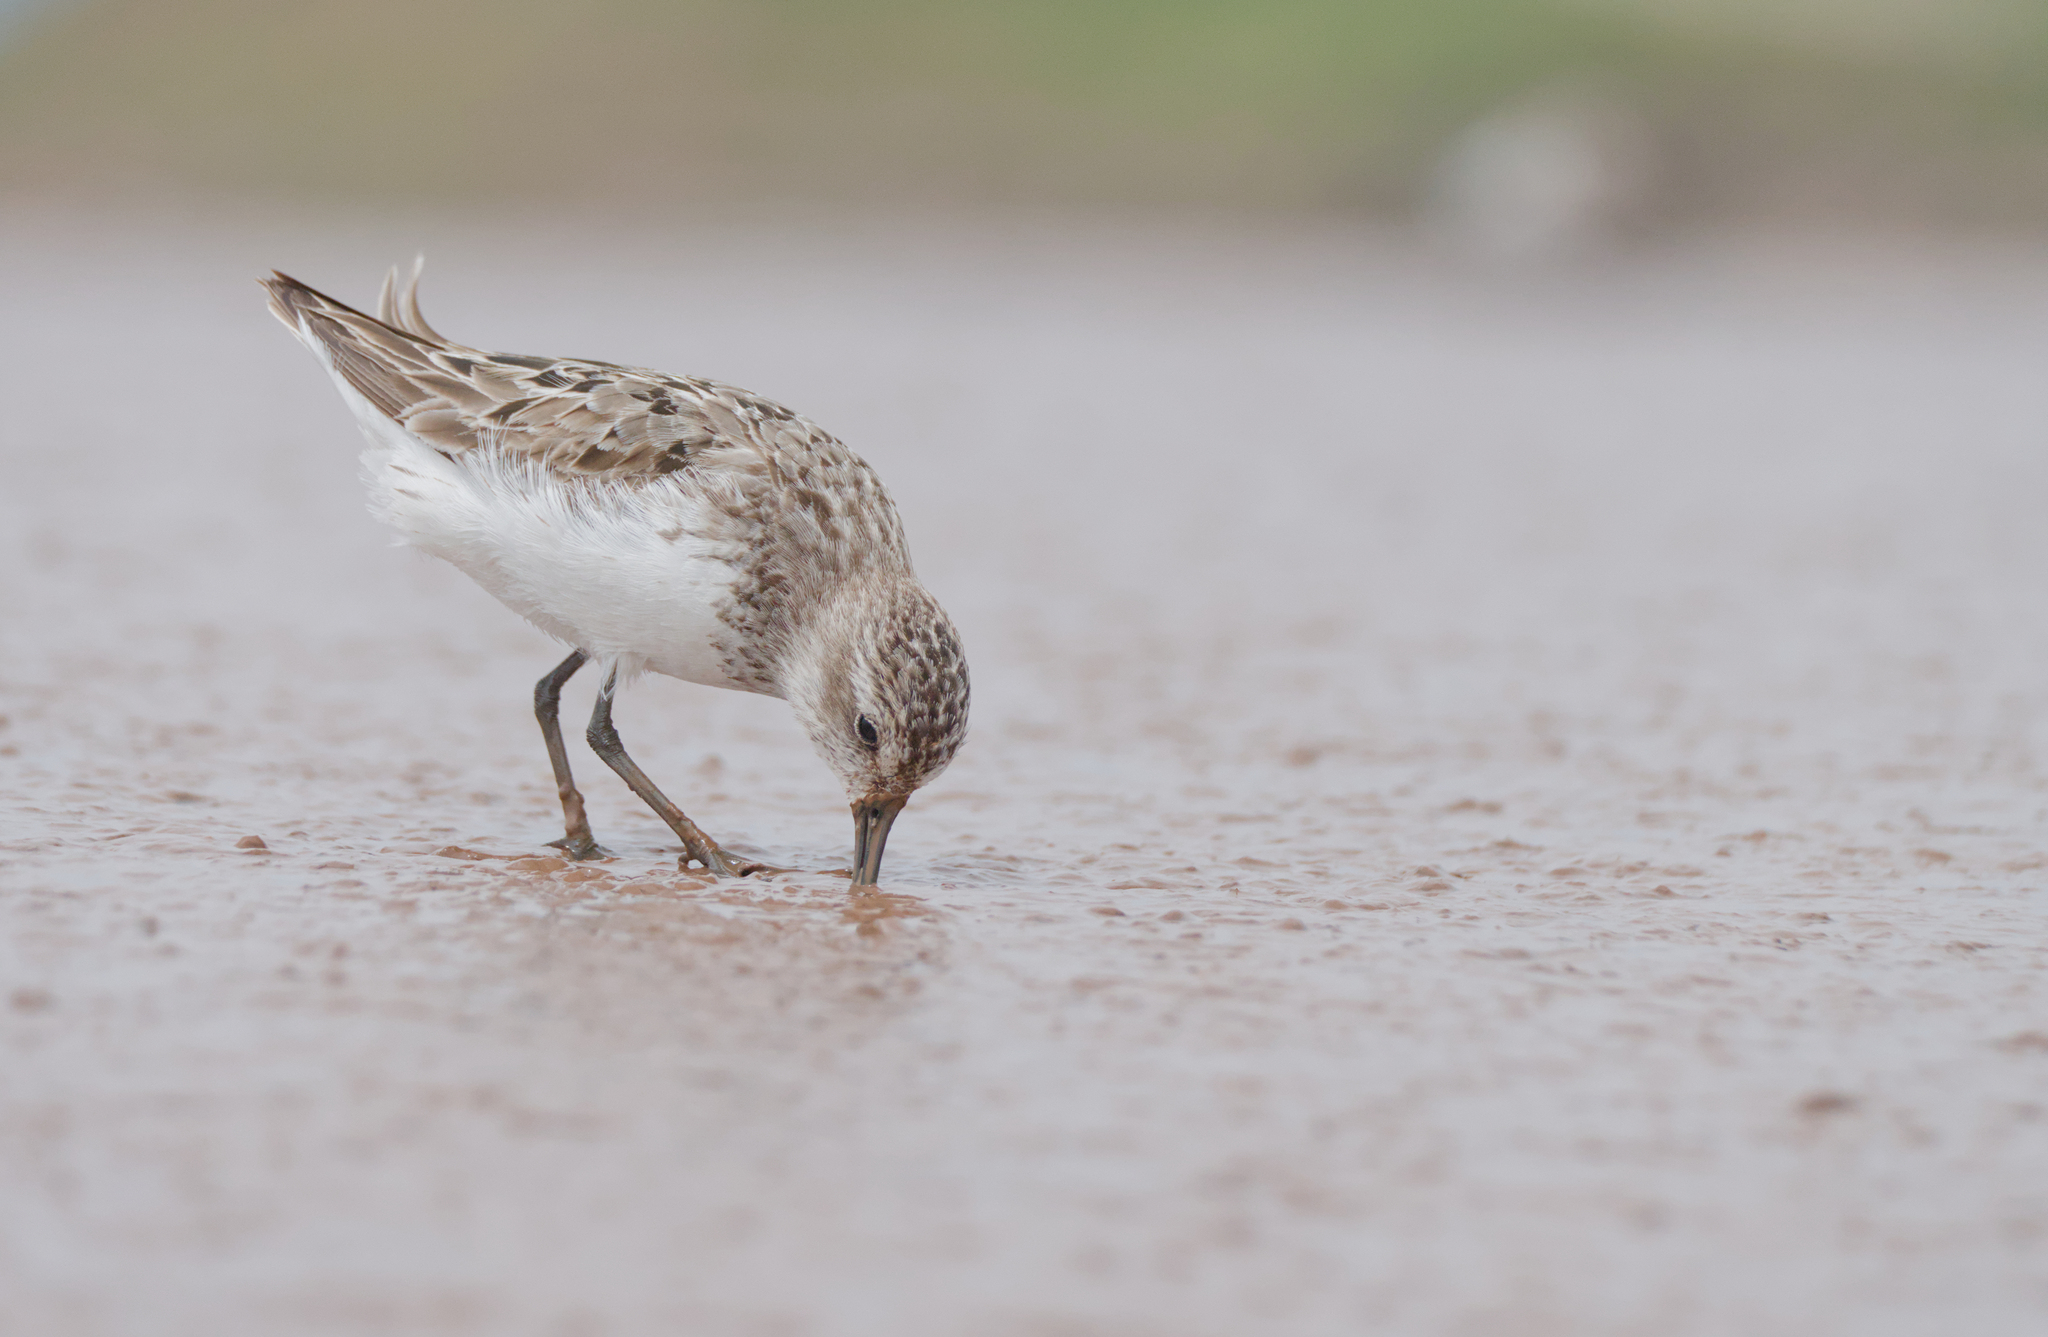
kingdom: Animalia
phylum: Chordata
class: Aves
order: Charadriiformes
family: Scolopacidae
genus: Calidris
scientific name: Calidris pusilla
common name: Semipalmated sandpiper
